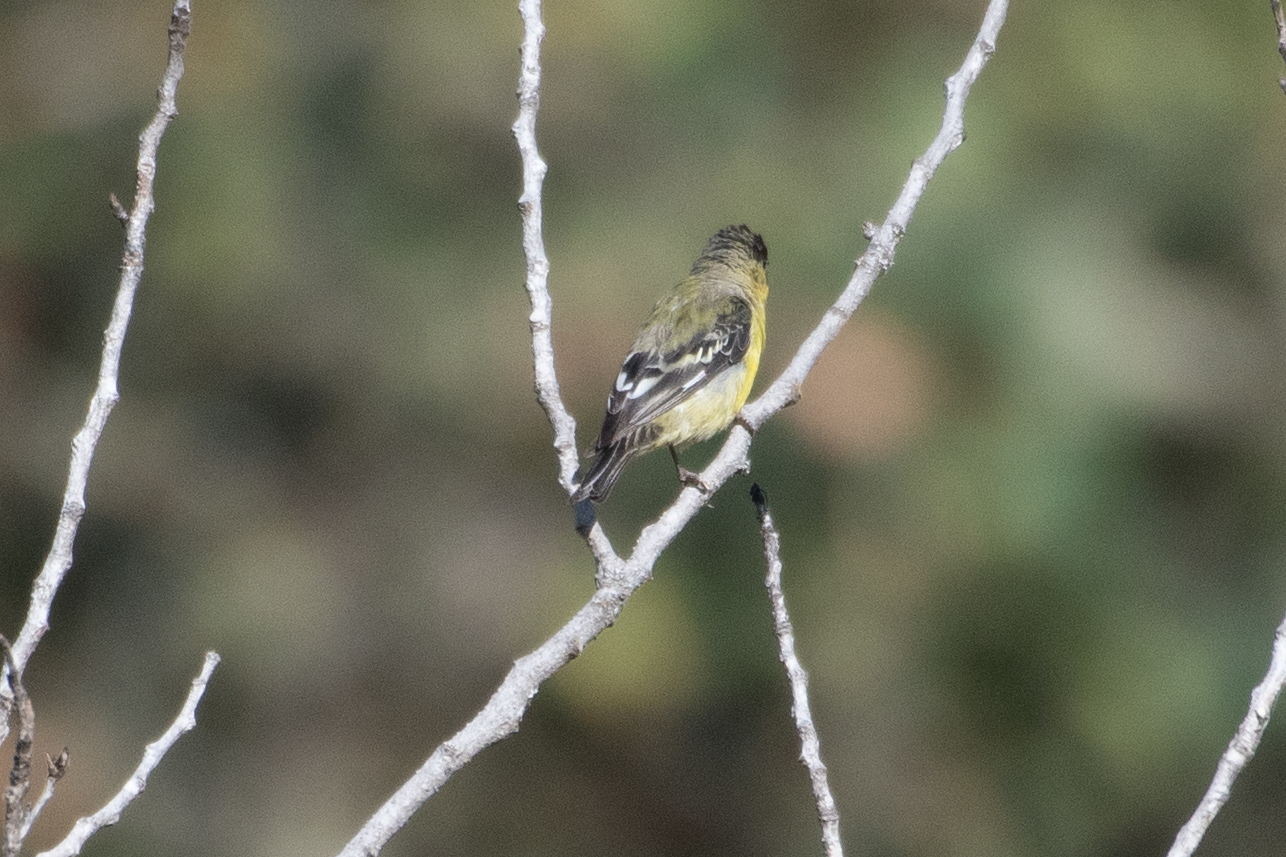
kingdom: Animalia
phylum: Chordata
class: Aves
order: Passeriformes
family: Fringillidae
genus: Spinus
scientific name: Spinus psaltria
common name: Lesser goldfinch
